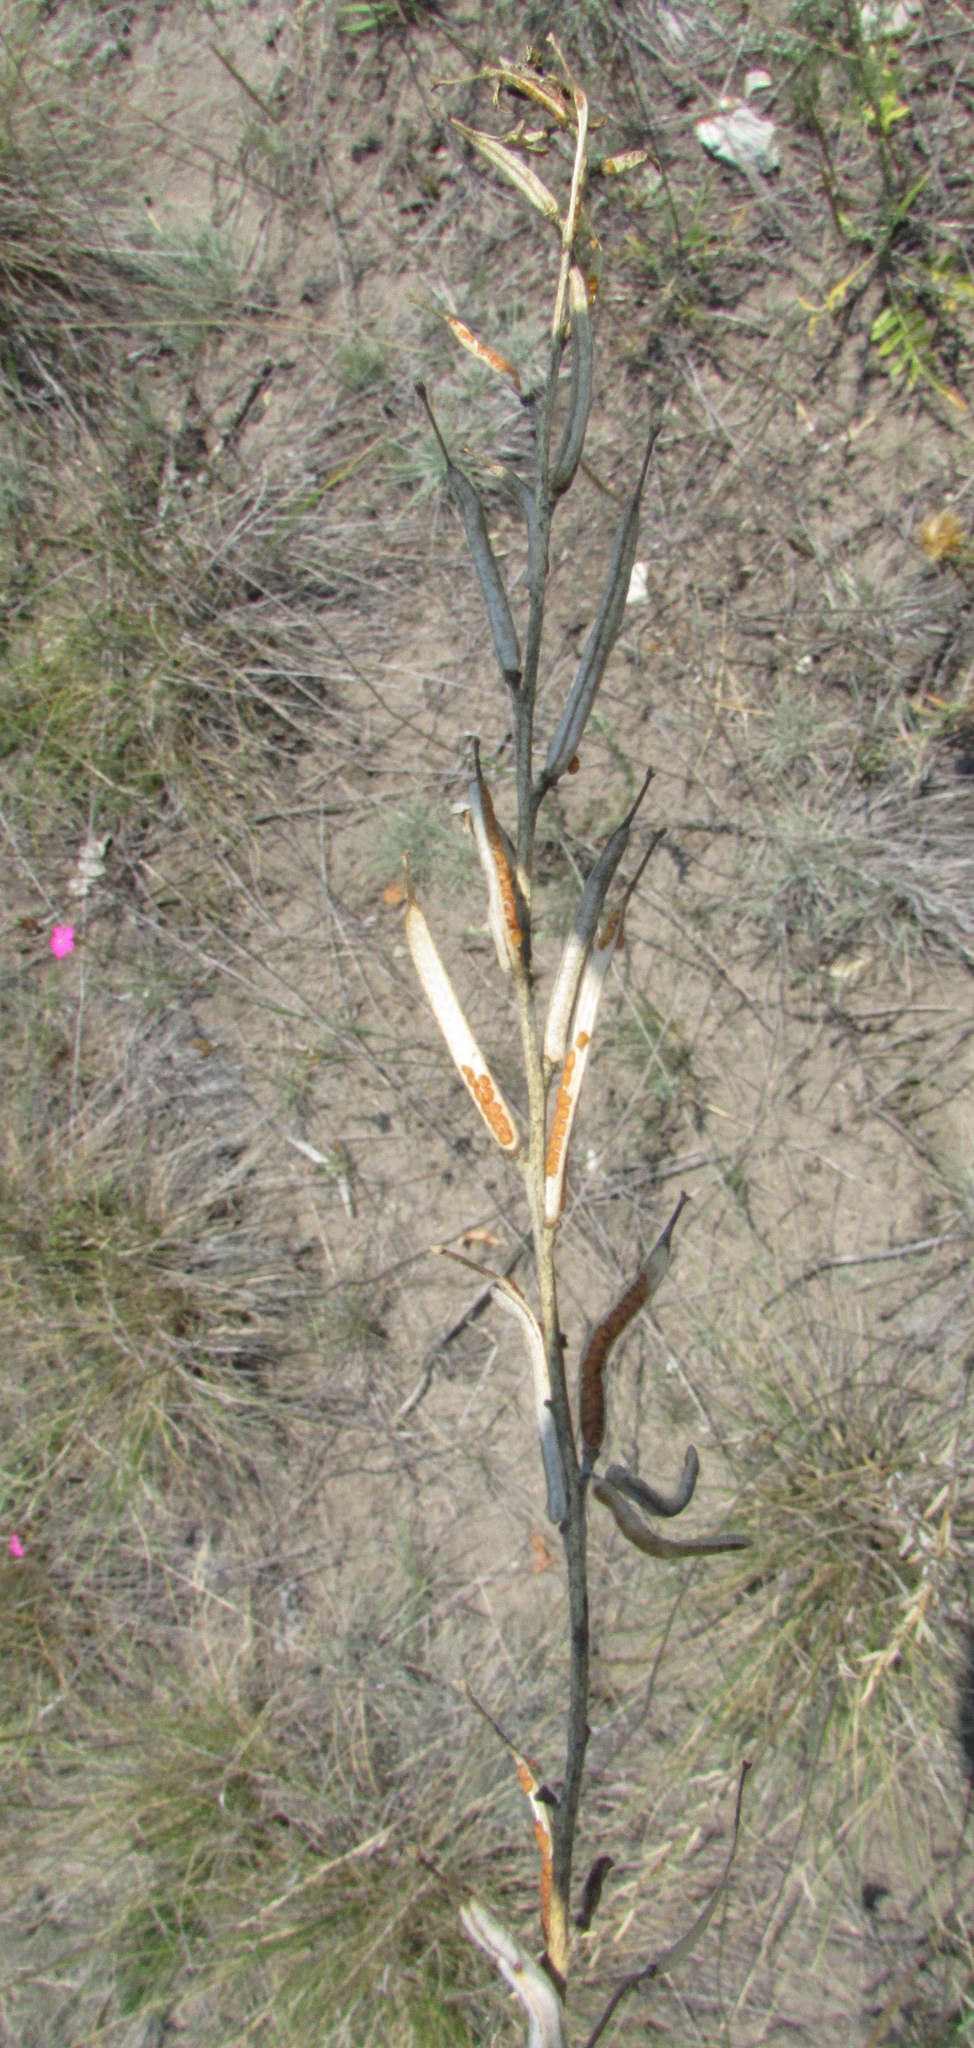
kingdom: Plantae
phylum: Tracheophyta
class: Magnoliopsida
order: Brassicales
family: Brassicaceae
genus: Erysimum
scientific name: Erysimum virgatum
